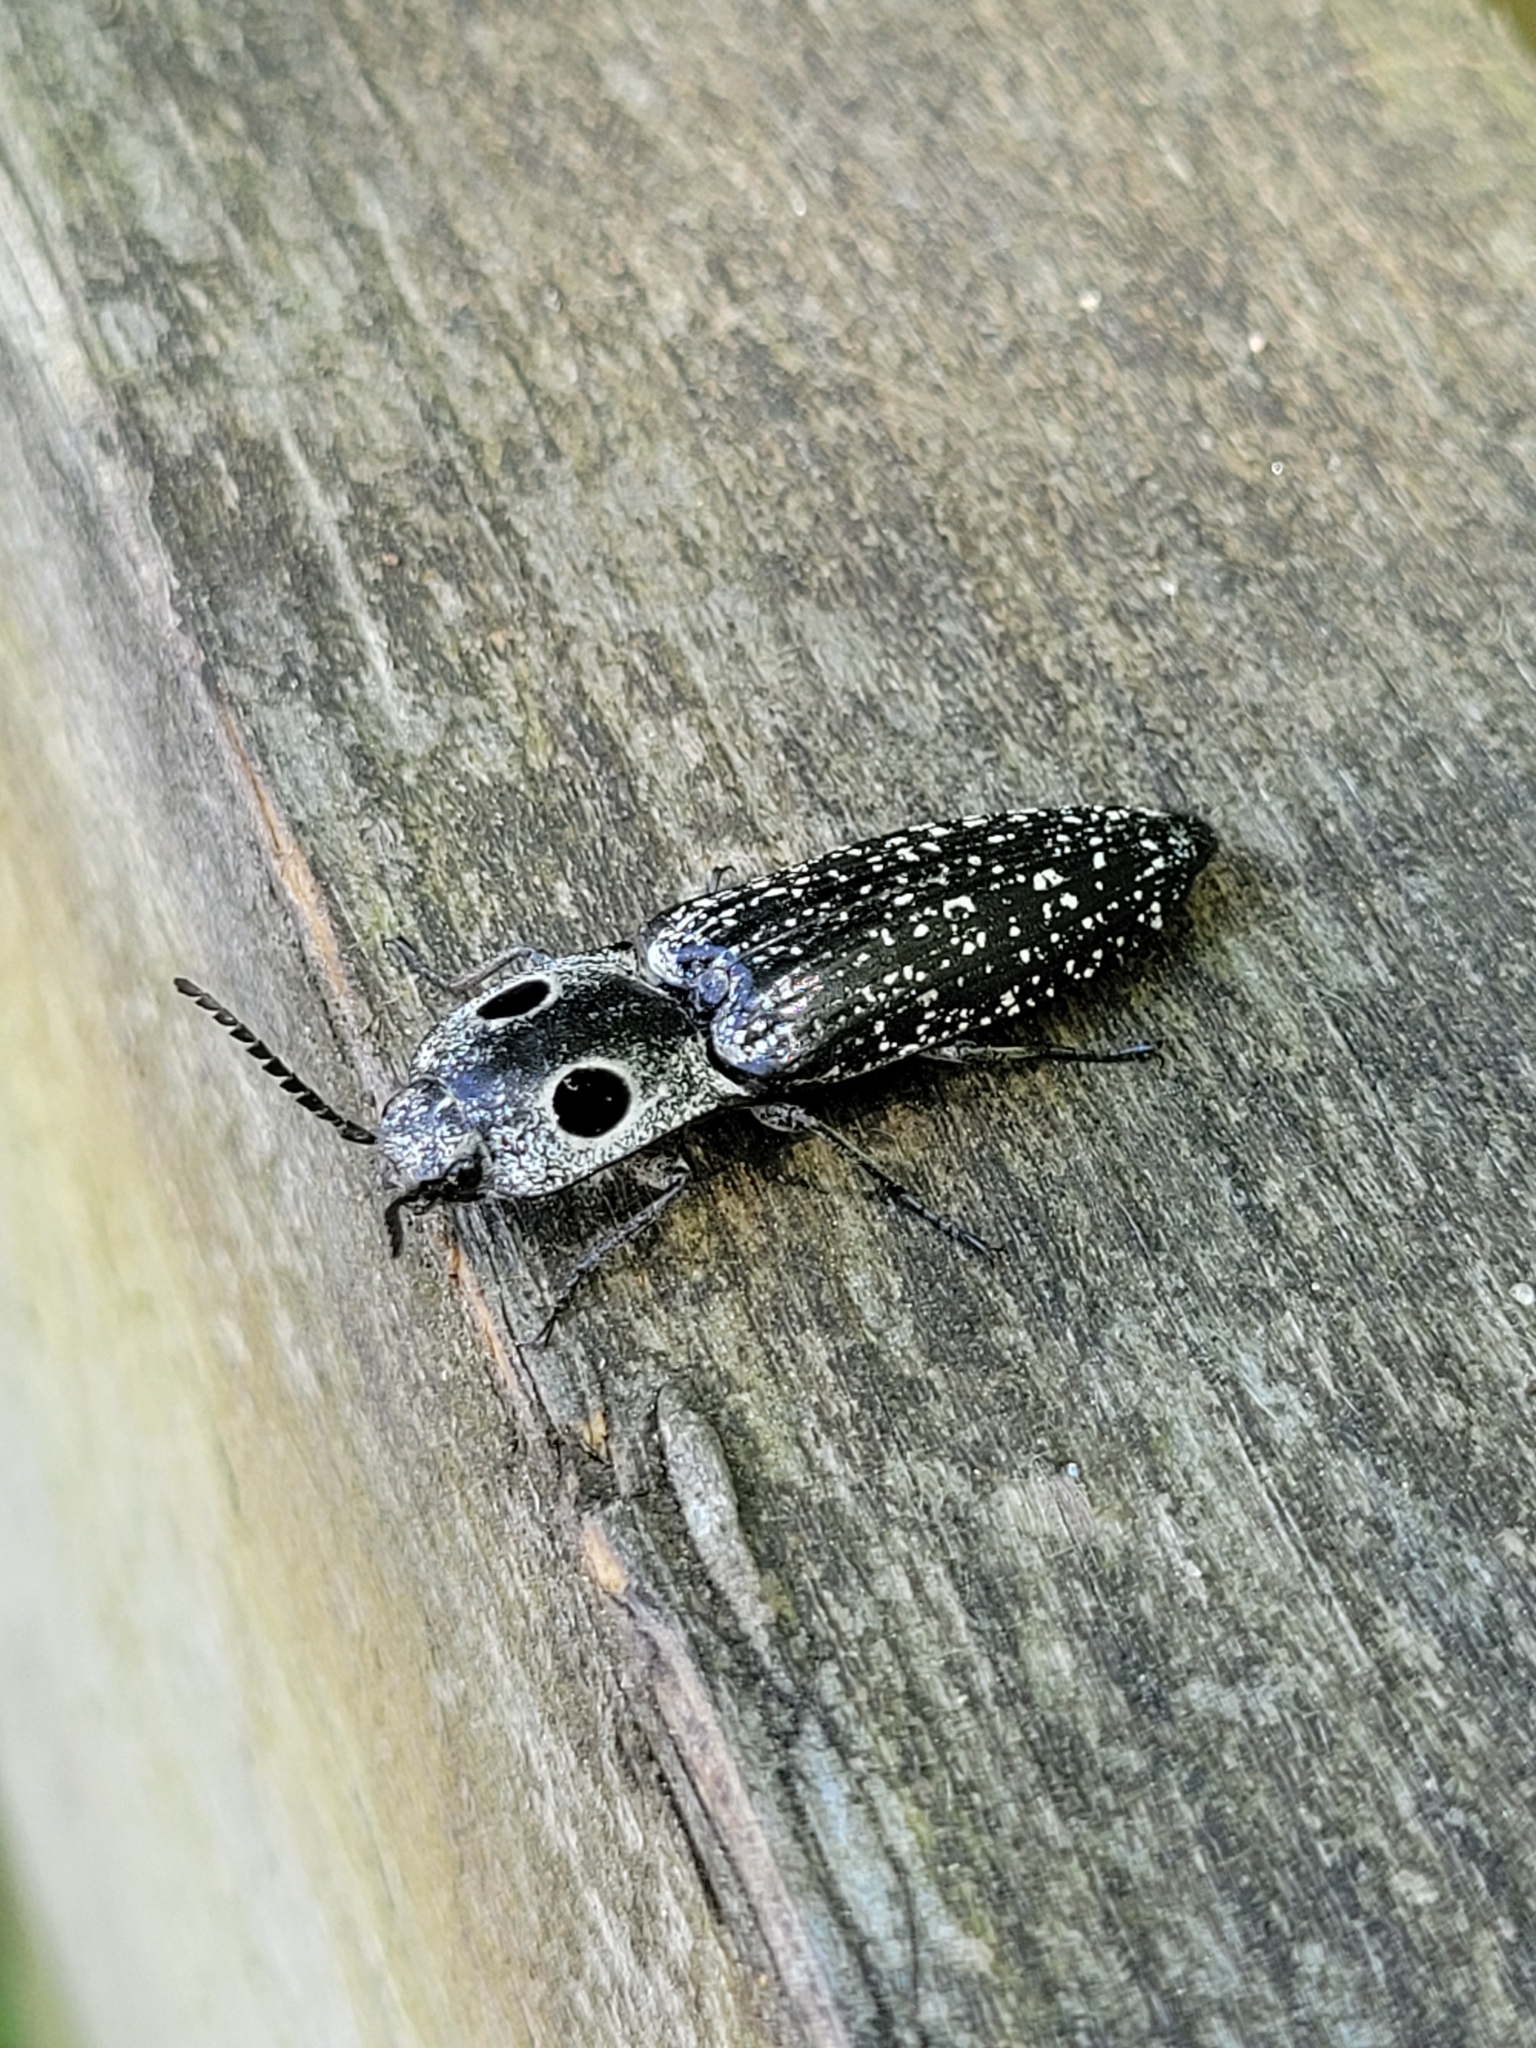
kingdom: Animalia
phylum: Arthropoda
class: Insecta
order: Coleoptera
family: Elateridae
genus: Alaus
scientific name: Alaus oculatus
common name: Eastern eyed click beetle
